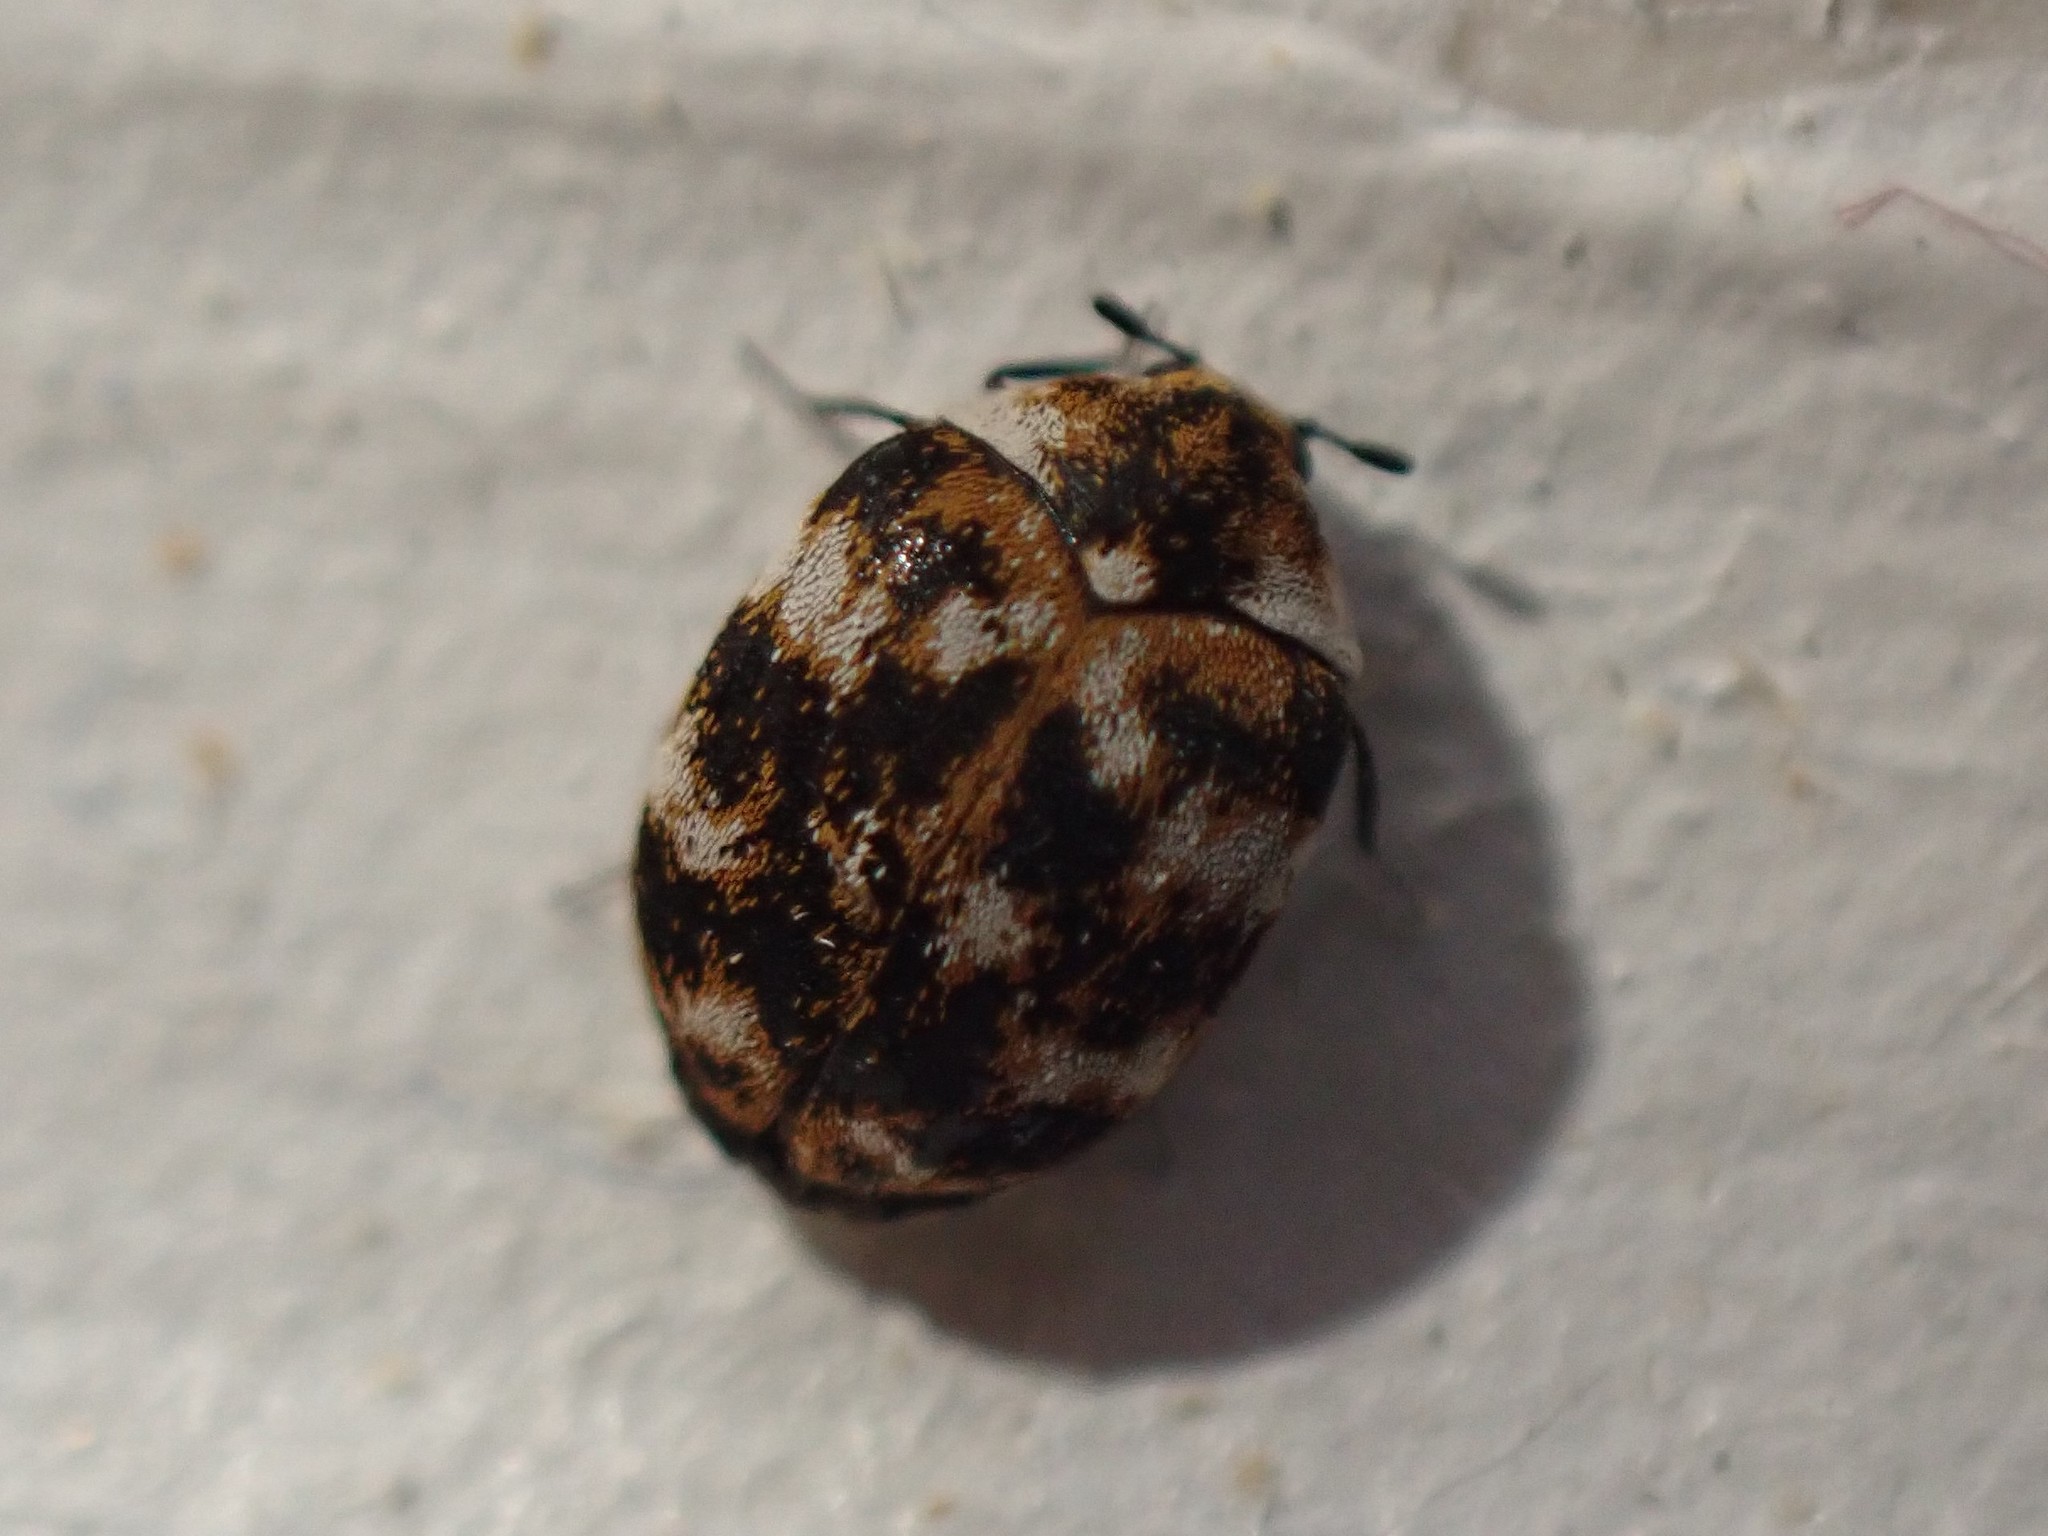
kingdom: Animalia
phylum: Arthropoda
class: Insecta
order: Coleoptera
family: Dermestidae
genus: Anthrenus
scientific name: Anthrenus verbasci
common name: Varied carpet beetle
